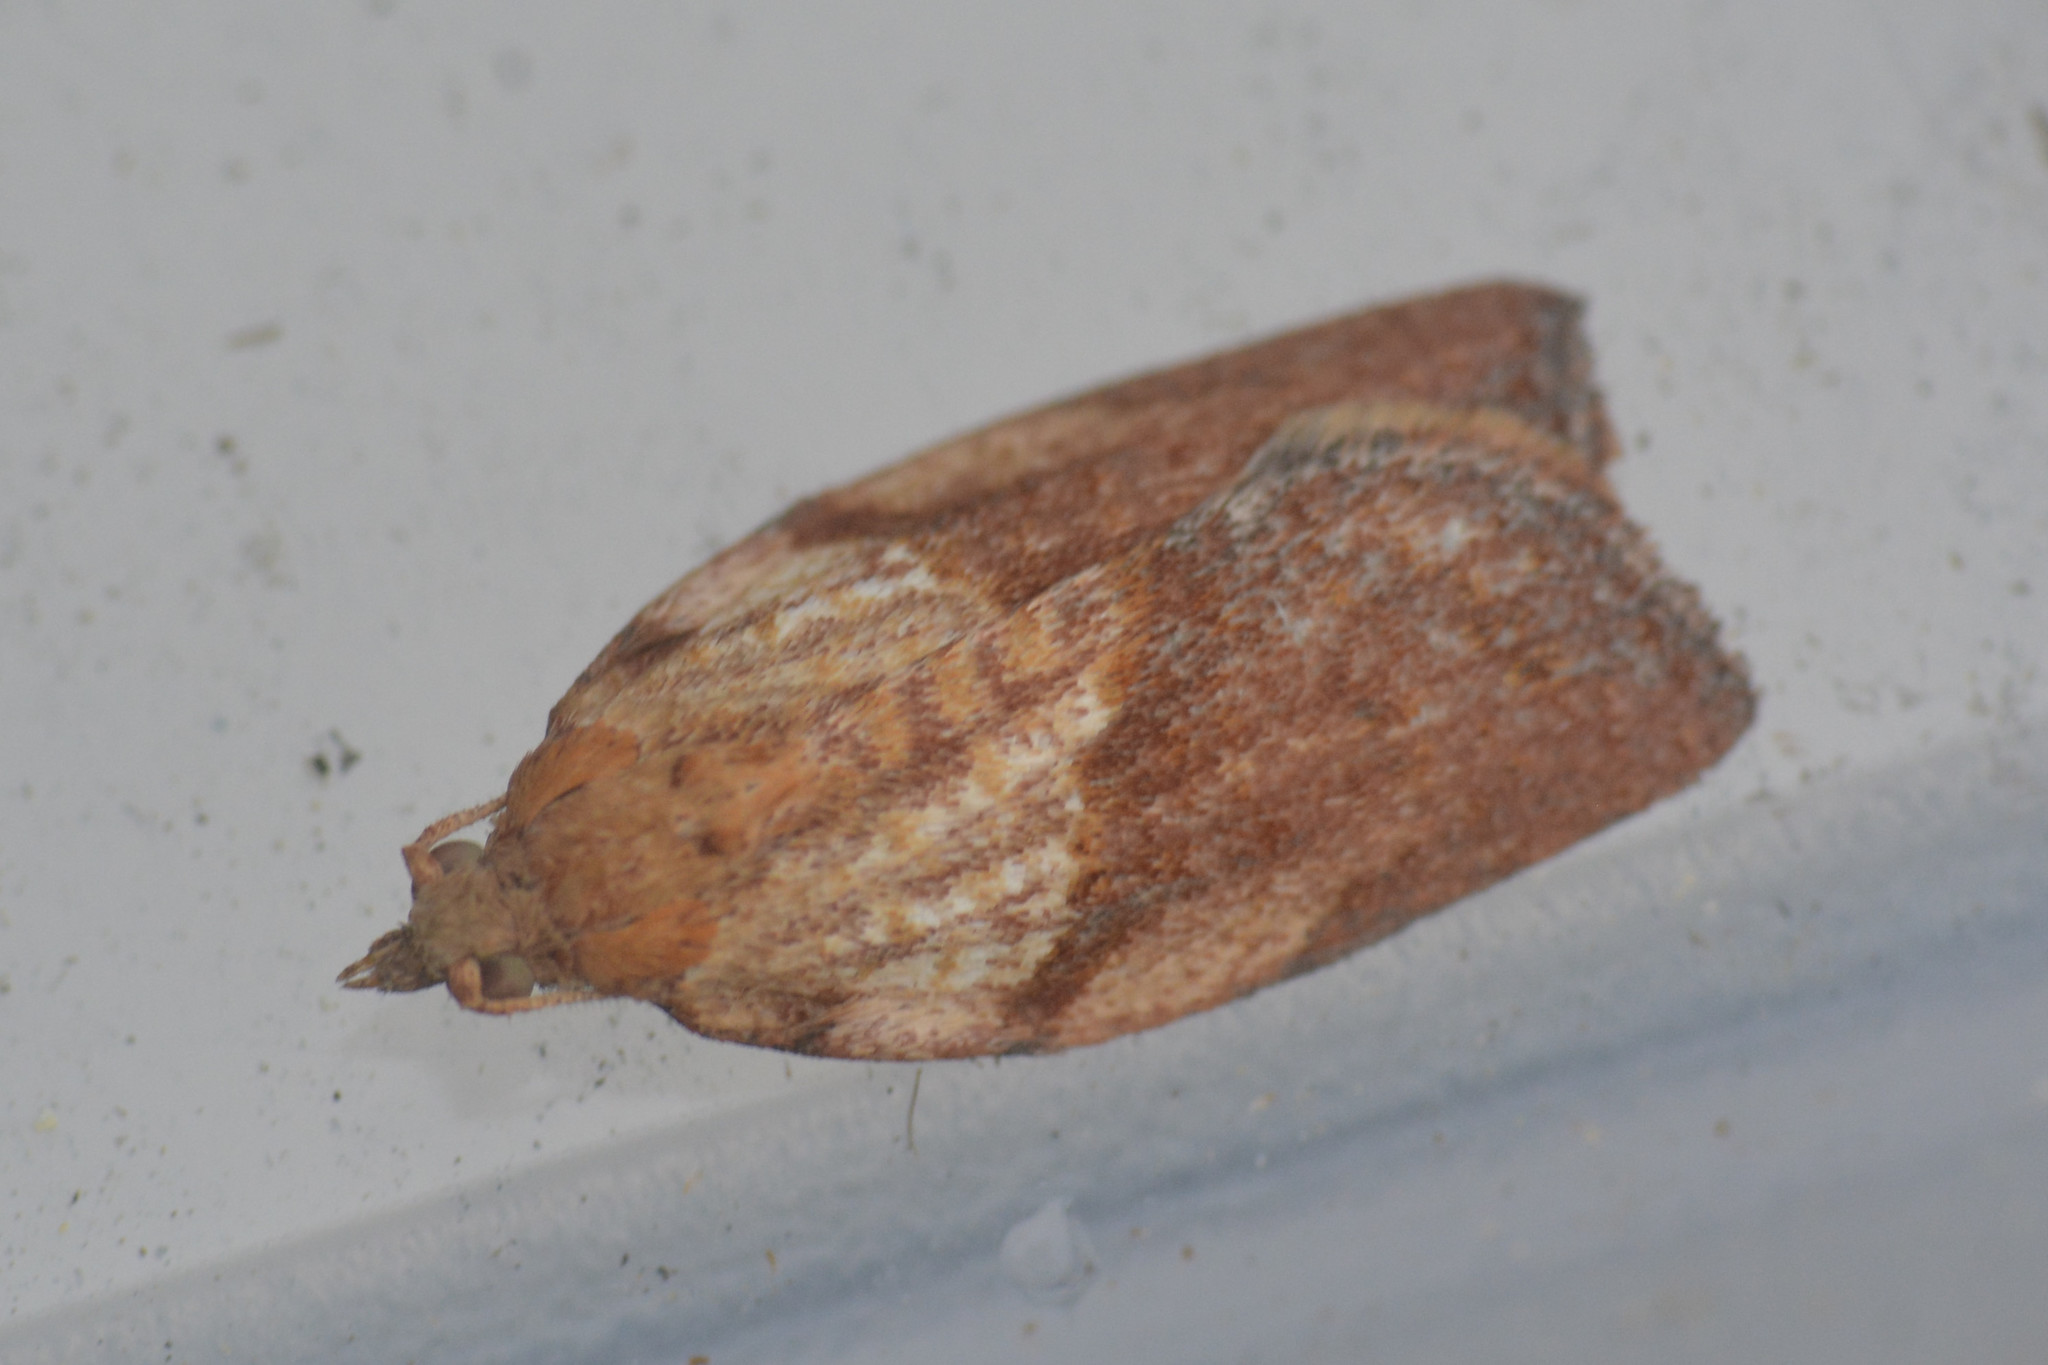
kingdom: Animalia
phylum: Arthropoda
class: Insecta
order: Lepidoptera
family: Tortricidae
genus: Epiphyas
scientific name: Epiphyas postvittana
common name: Light brown apple moth
